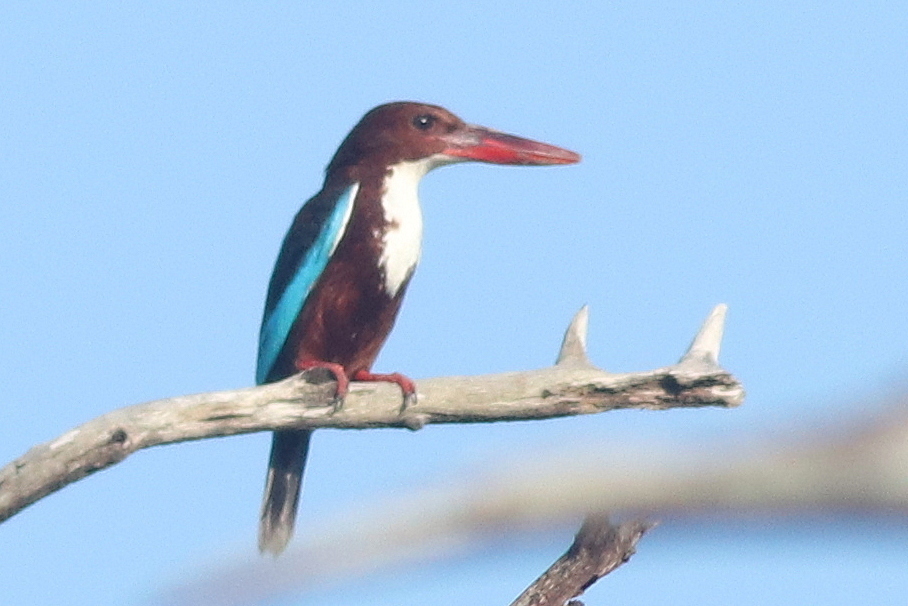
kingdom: Animalia
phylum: Chordata
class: Aves
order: Coraciiformes
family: Alcedinidae
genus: Halcyon
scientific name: Halcyon smyrnensis
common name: White-throated kingfisher
